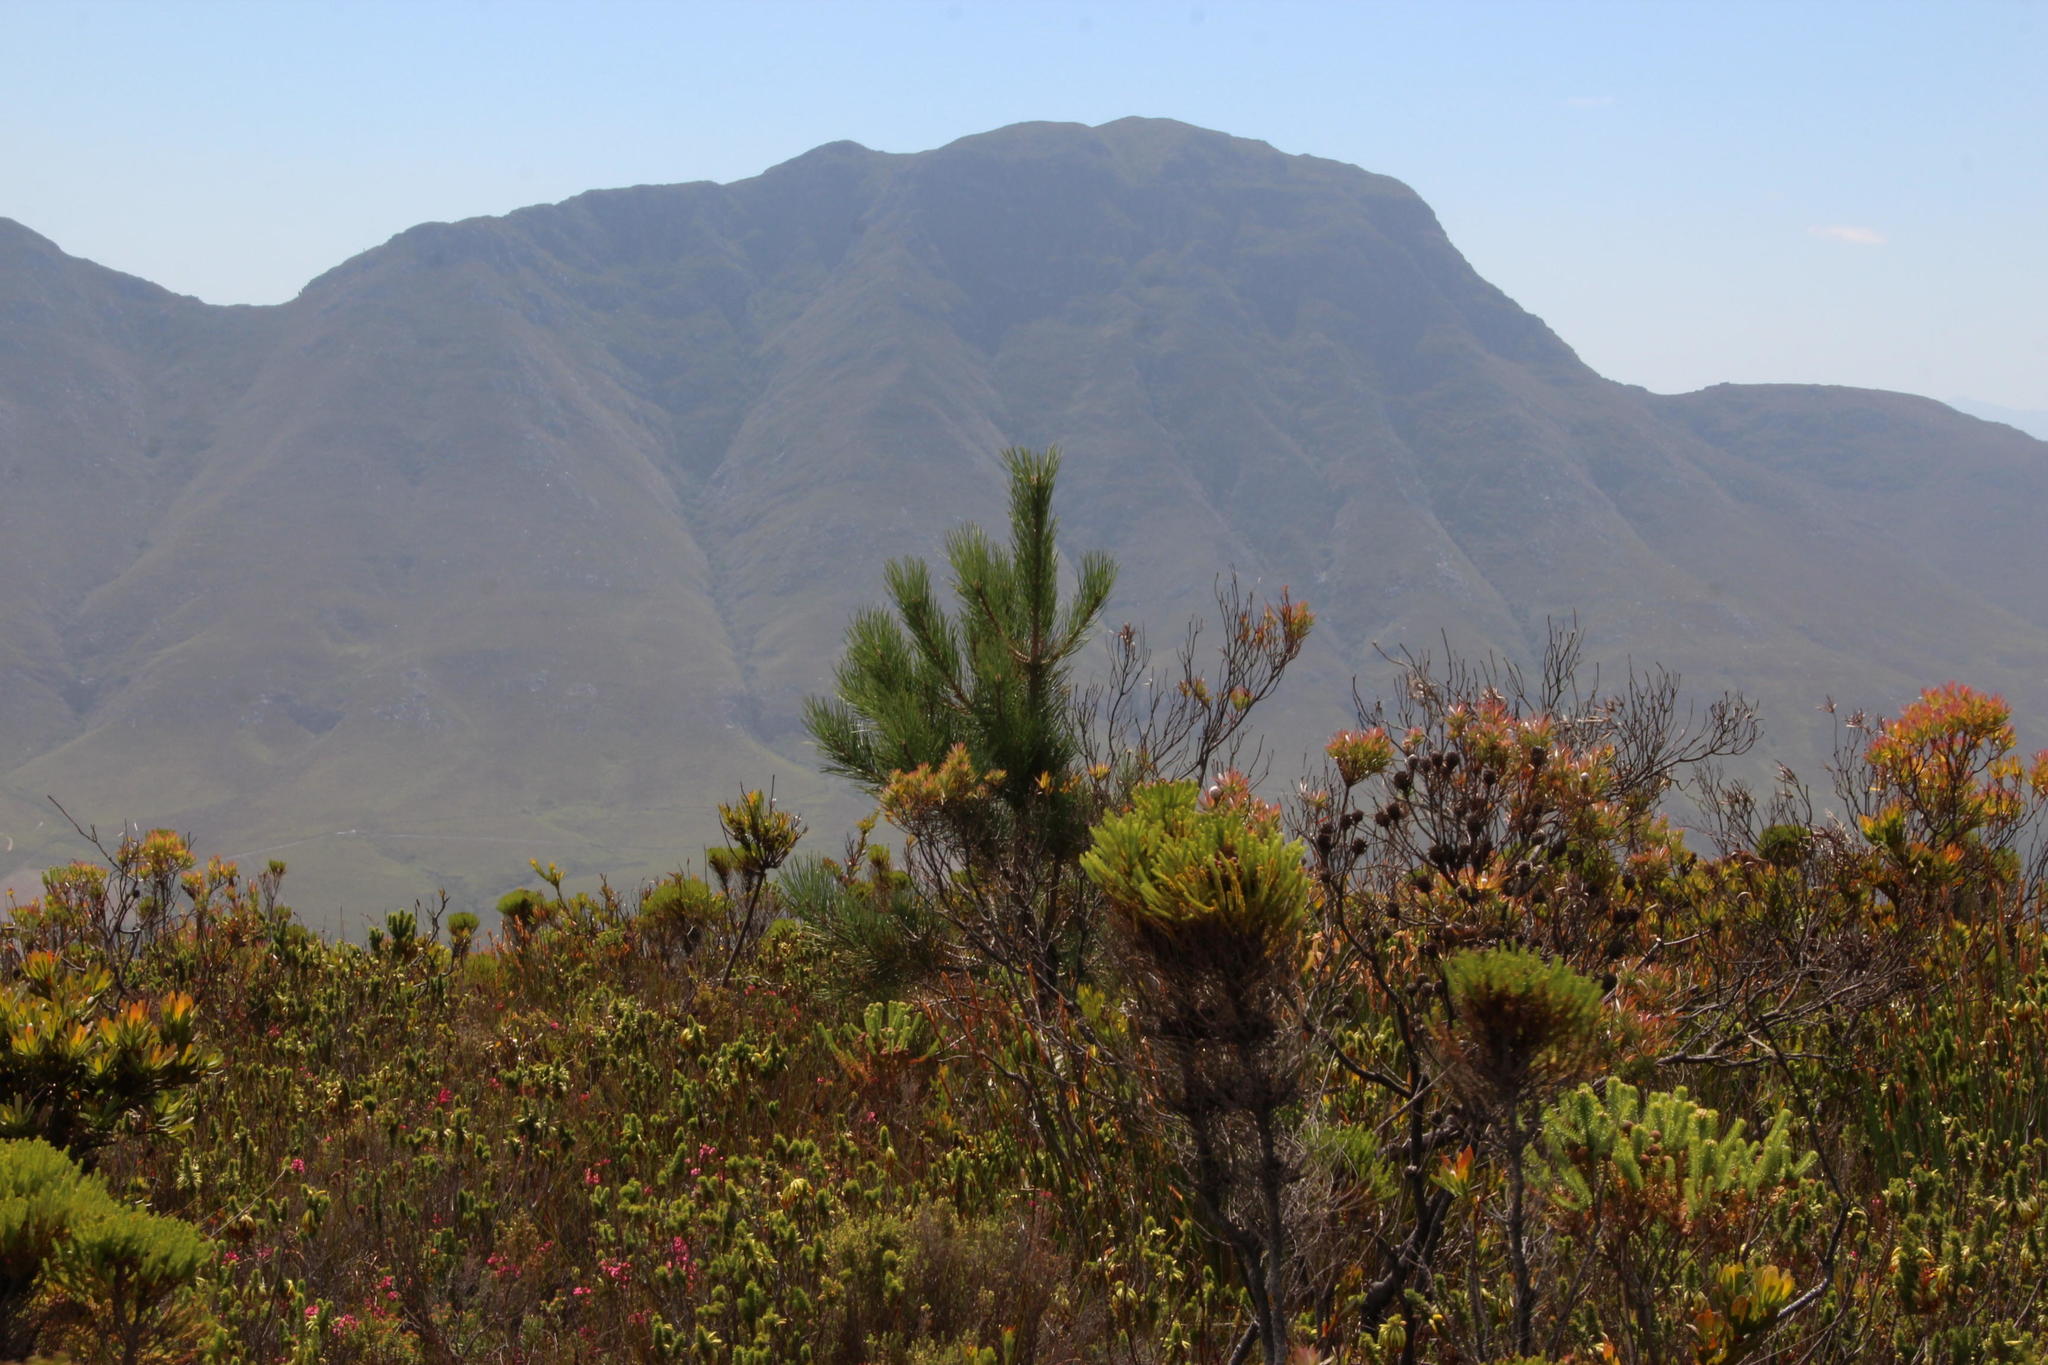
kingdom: Plantae
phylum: Tracheophyta
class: Pinopsida
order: Pinales
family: Pinaceae
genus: Pinus
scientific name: Pinus pinaster
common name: Maritime pine
